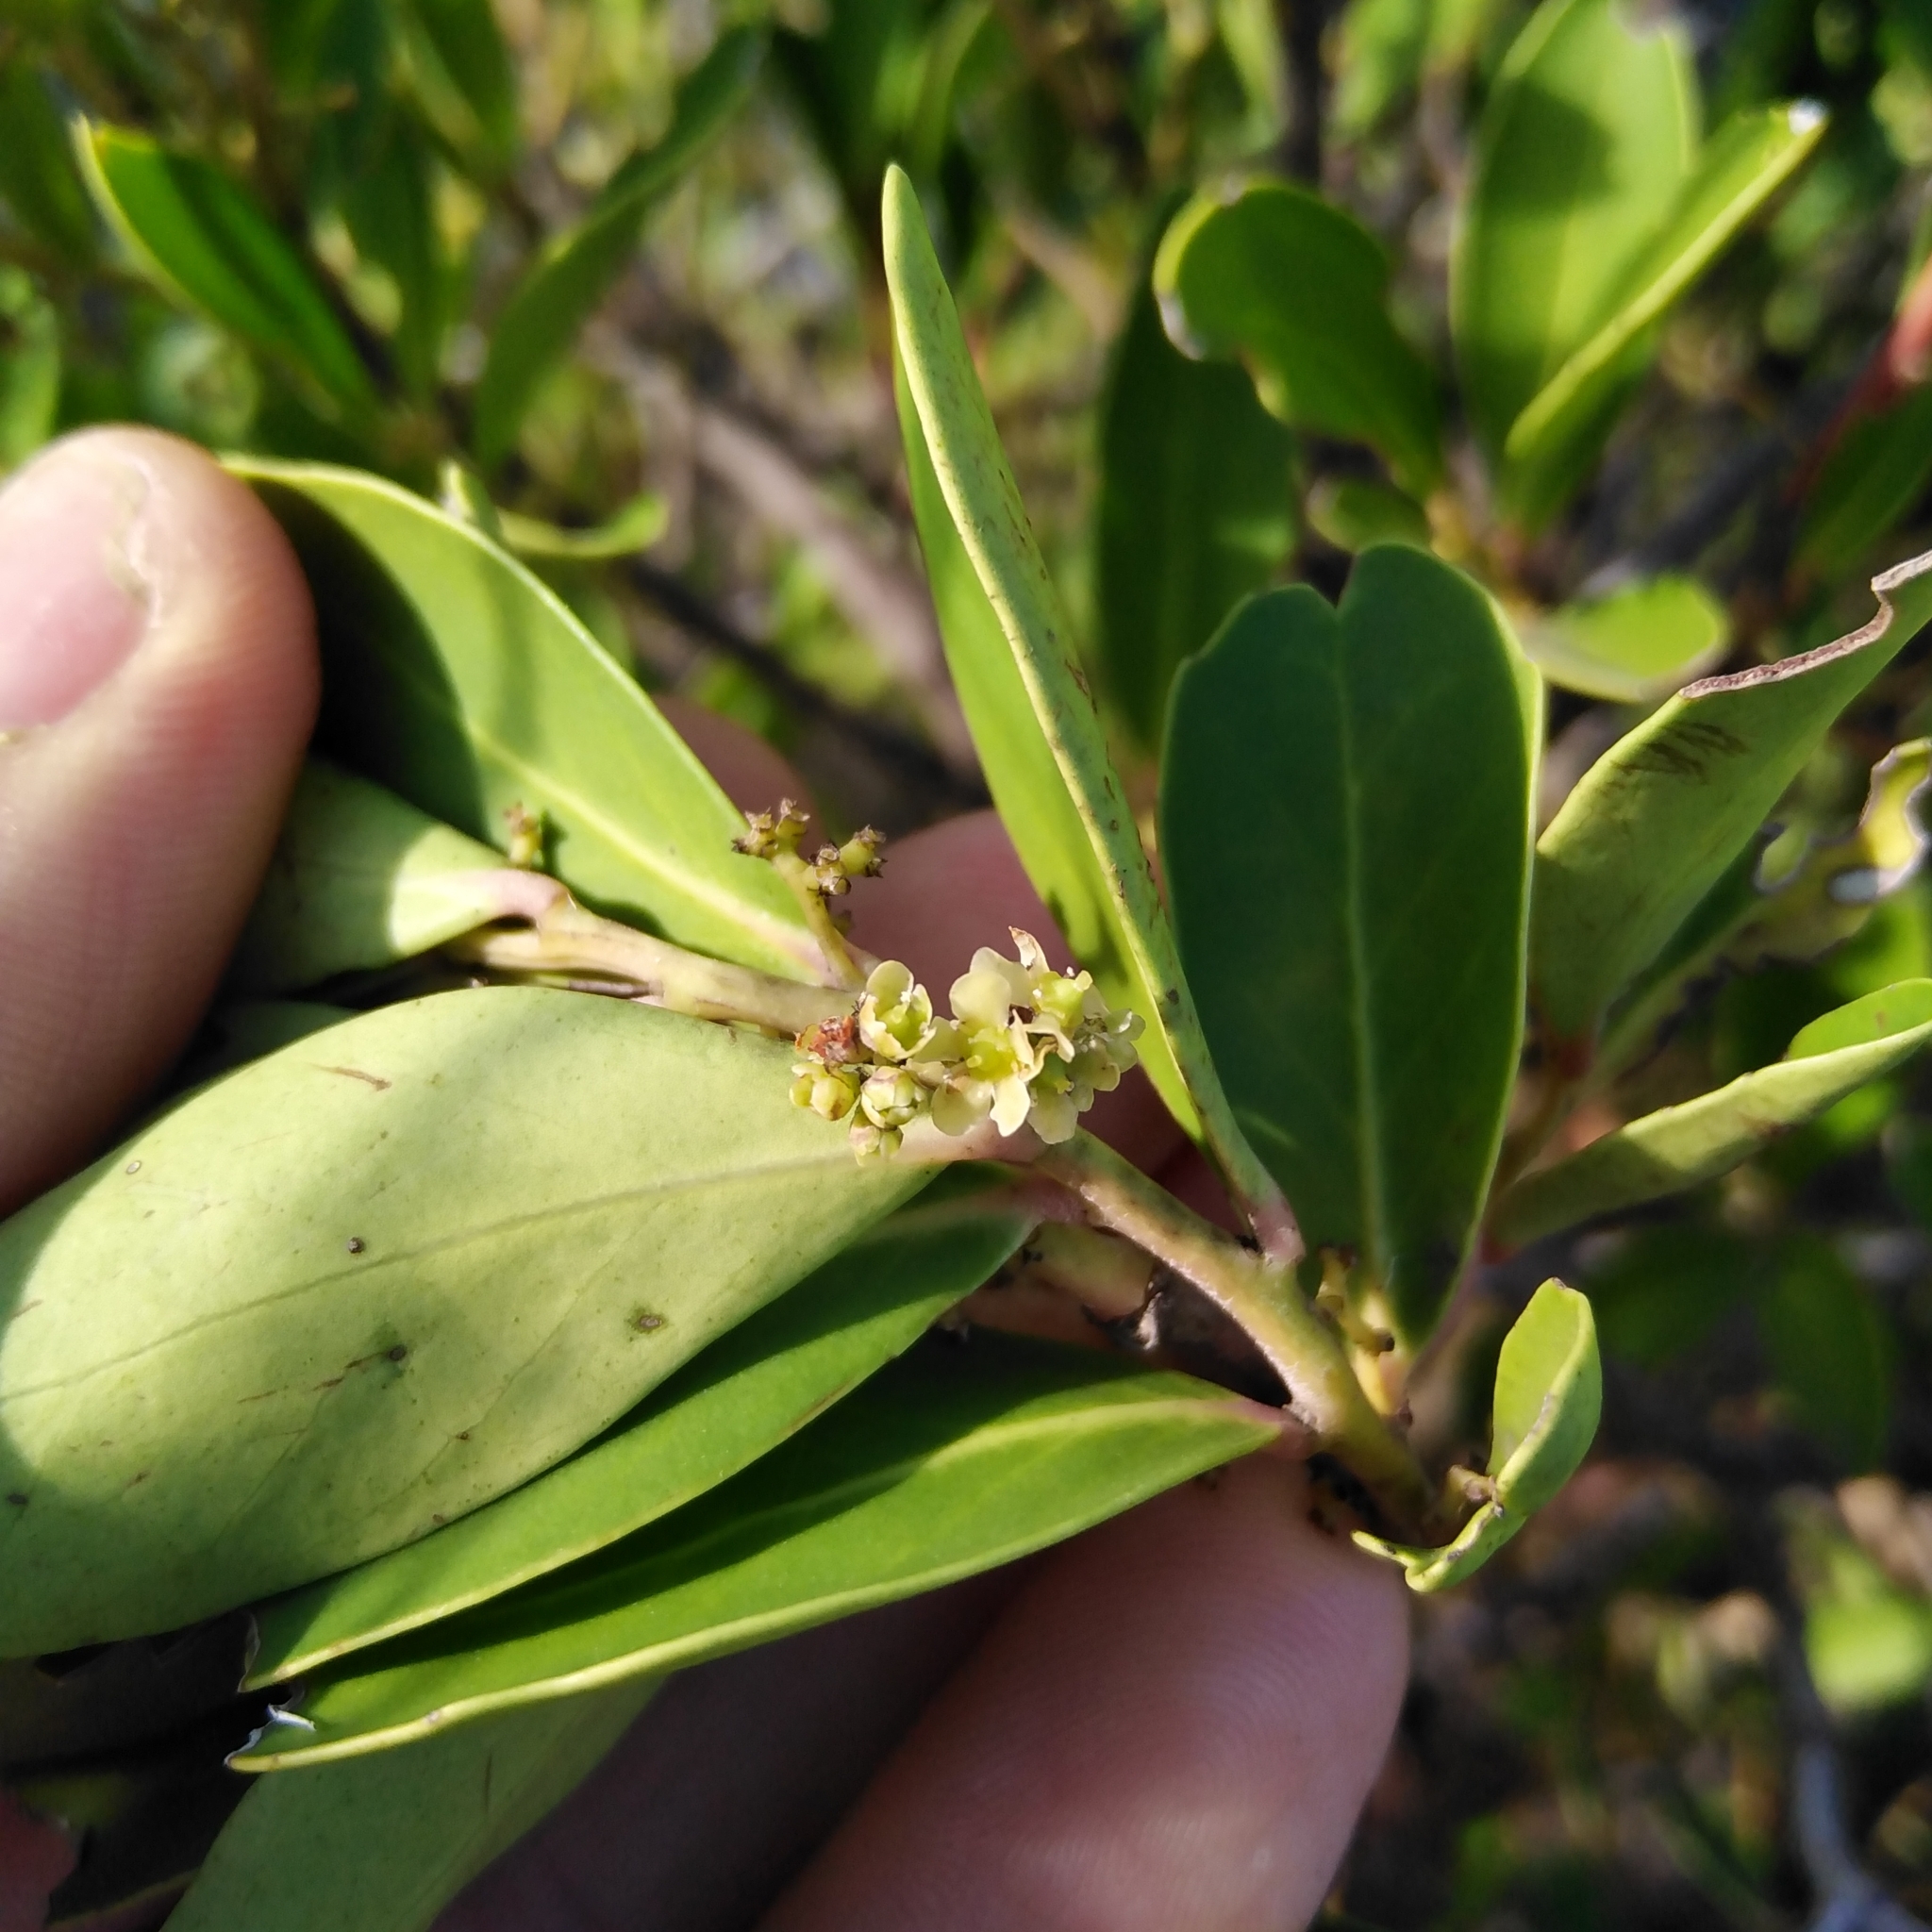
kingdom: Plantae
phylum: Tracheophyta
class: Magnoliopsida
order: Celastrales
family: Celastraceae
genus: Gymnosporia
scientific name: Gymnosporia laurina
